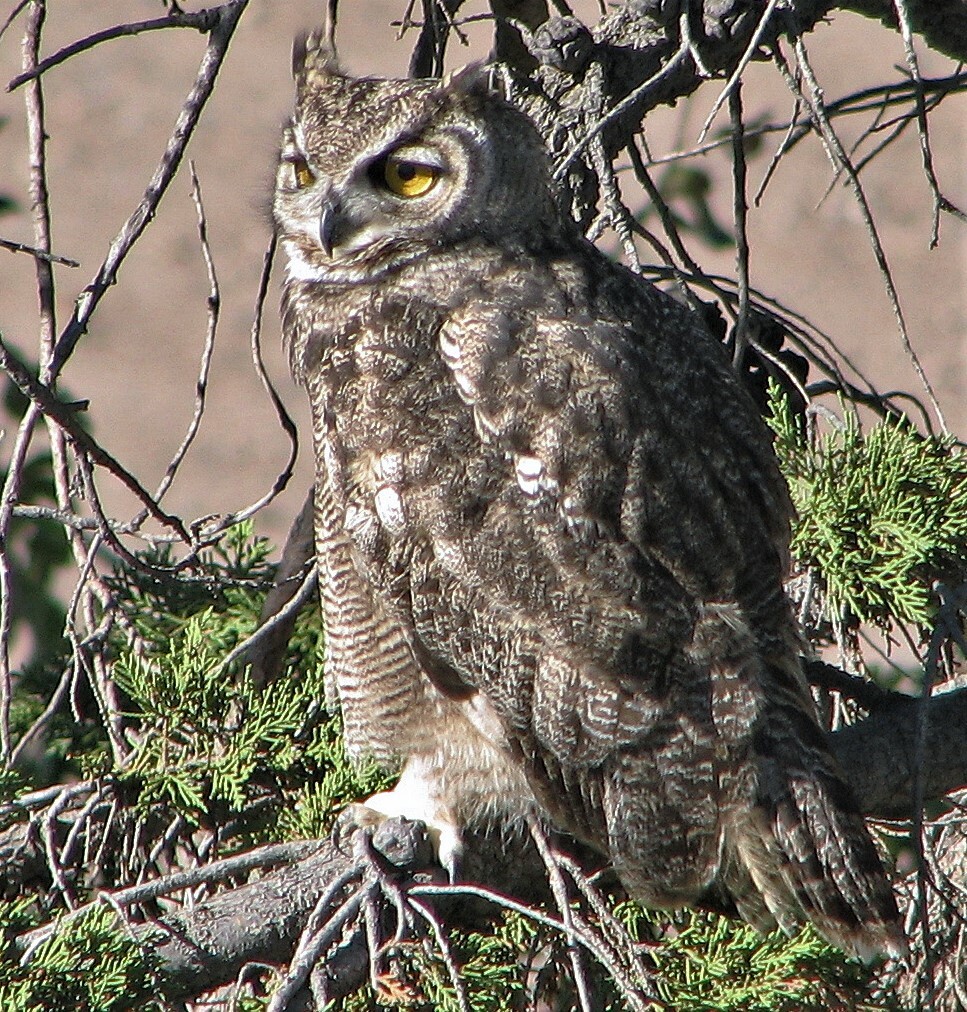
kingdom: Animalia
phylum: Chordata
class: Aves
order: Strigiformes
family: Strigidae
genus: Bubo
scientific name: Bubo magellanicus
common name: Lesser horned owl
